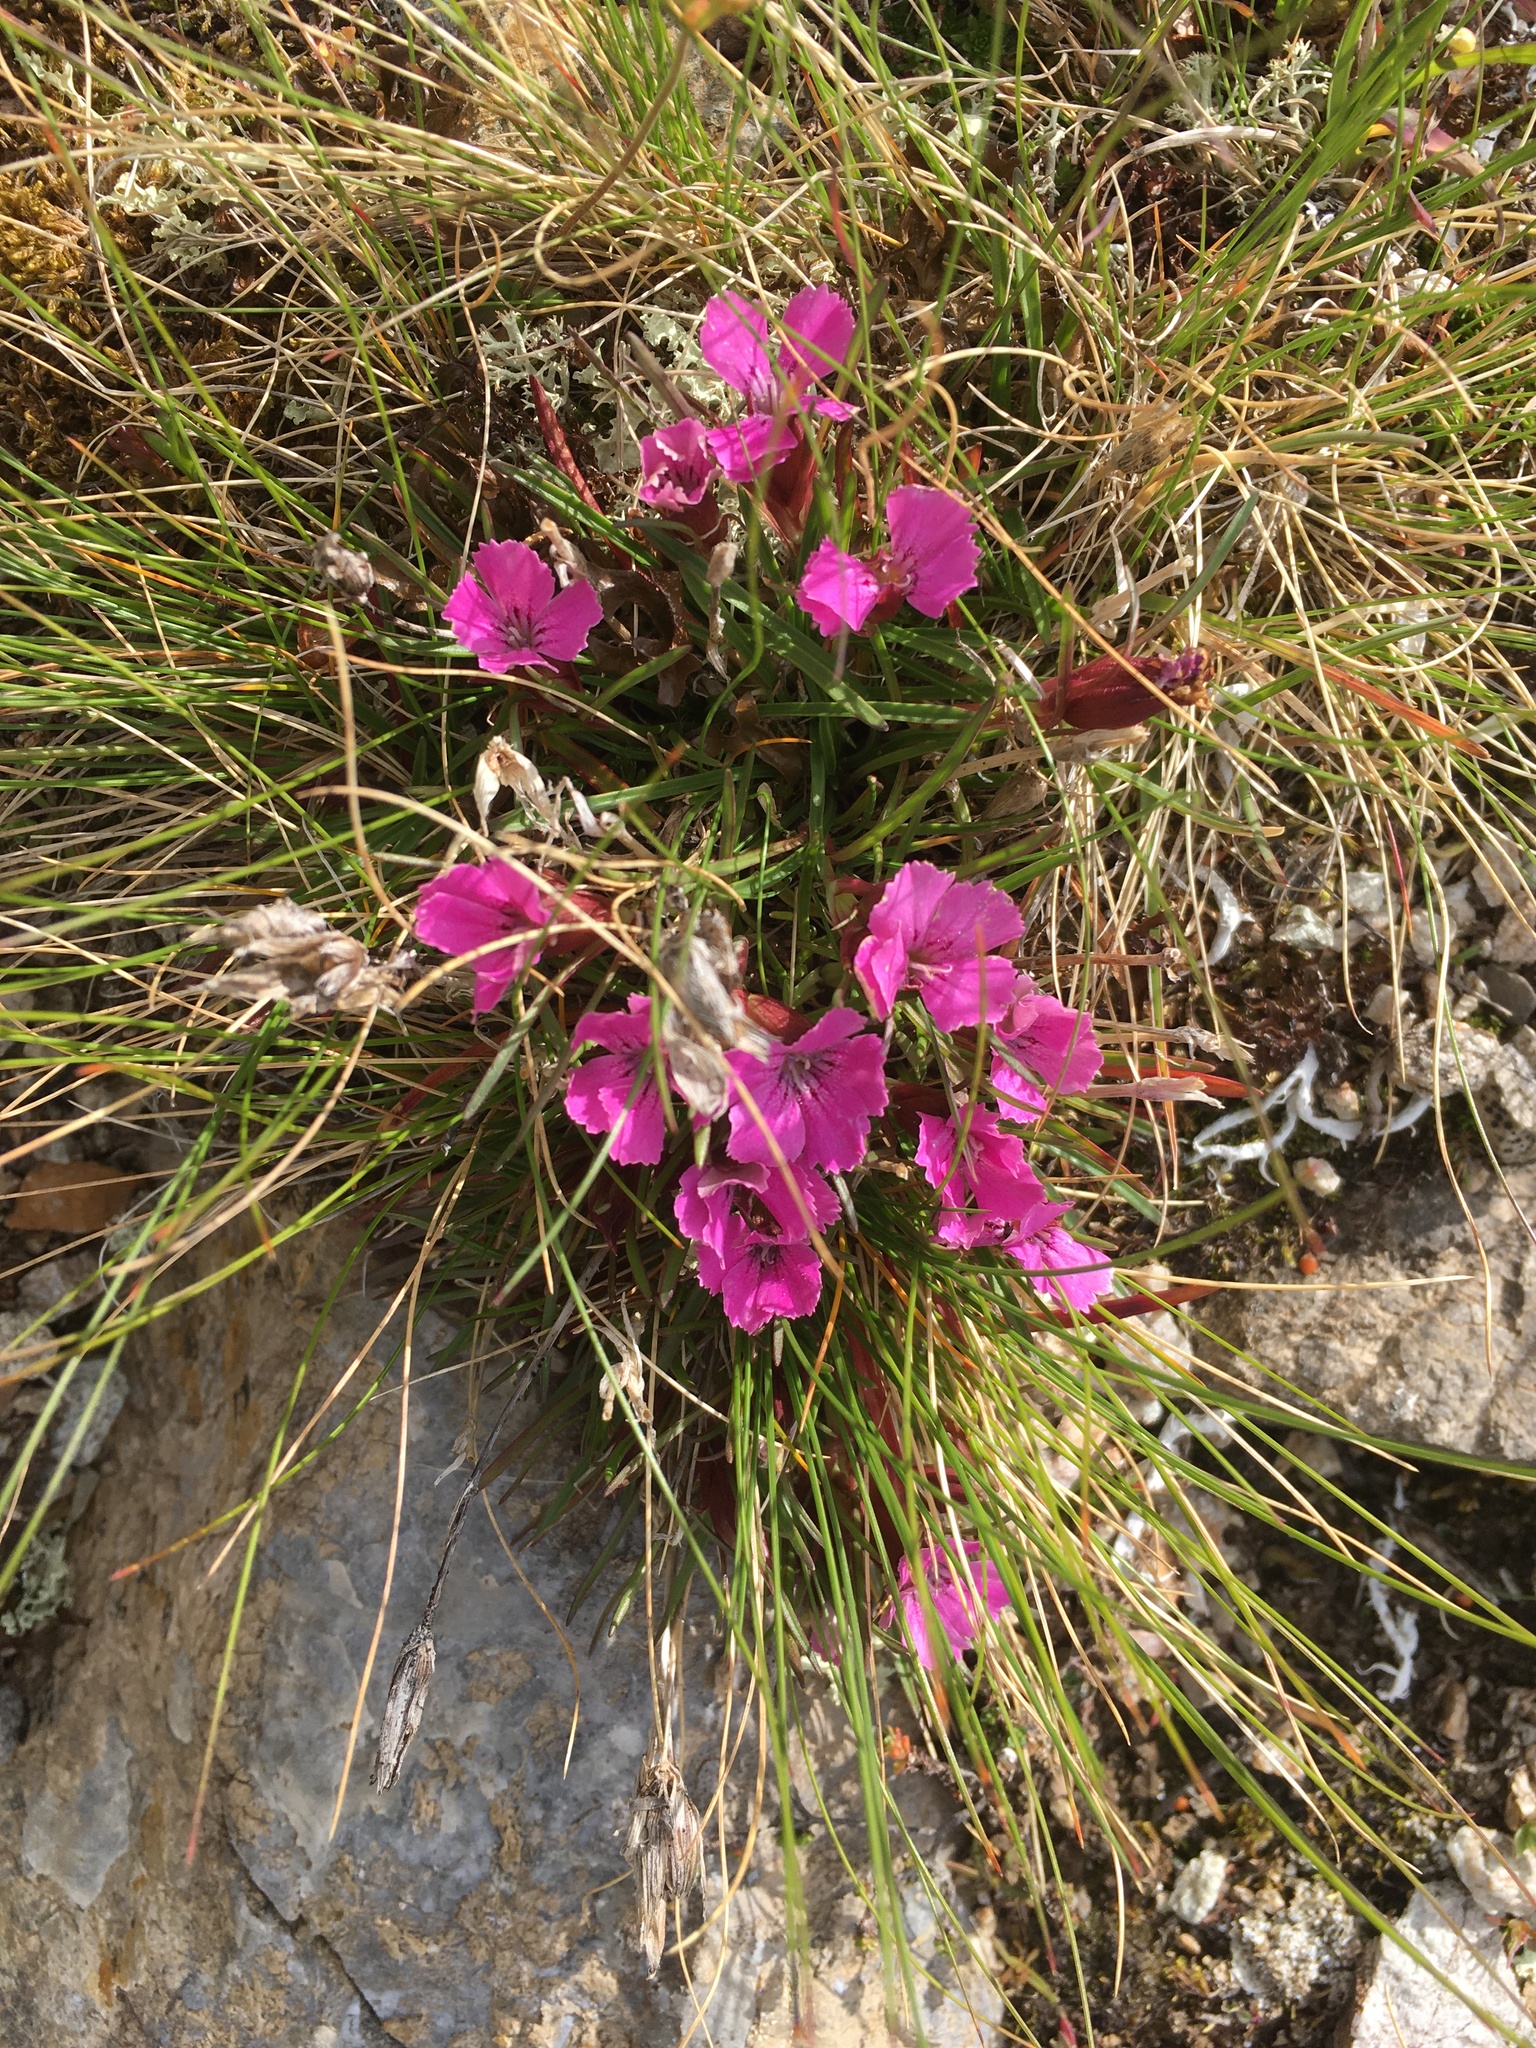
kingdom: Plantae
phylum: Tracheophyta
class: Magnoliopsida
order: Caryophyllales
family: Caryophyllaceae
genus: Dianthus
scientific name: Dianthus glacialis
